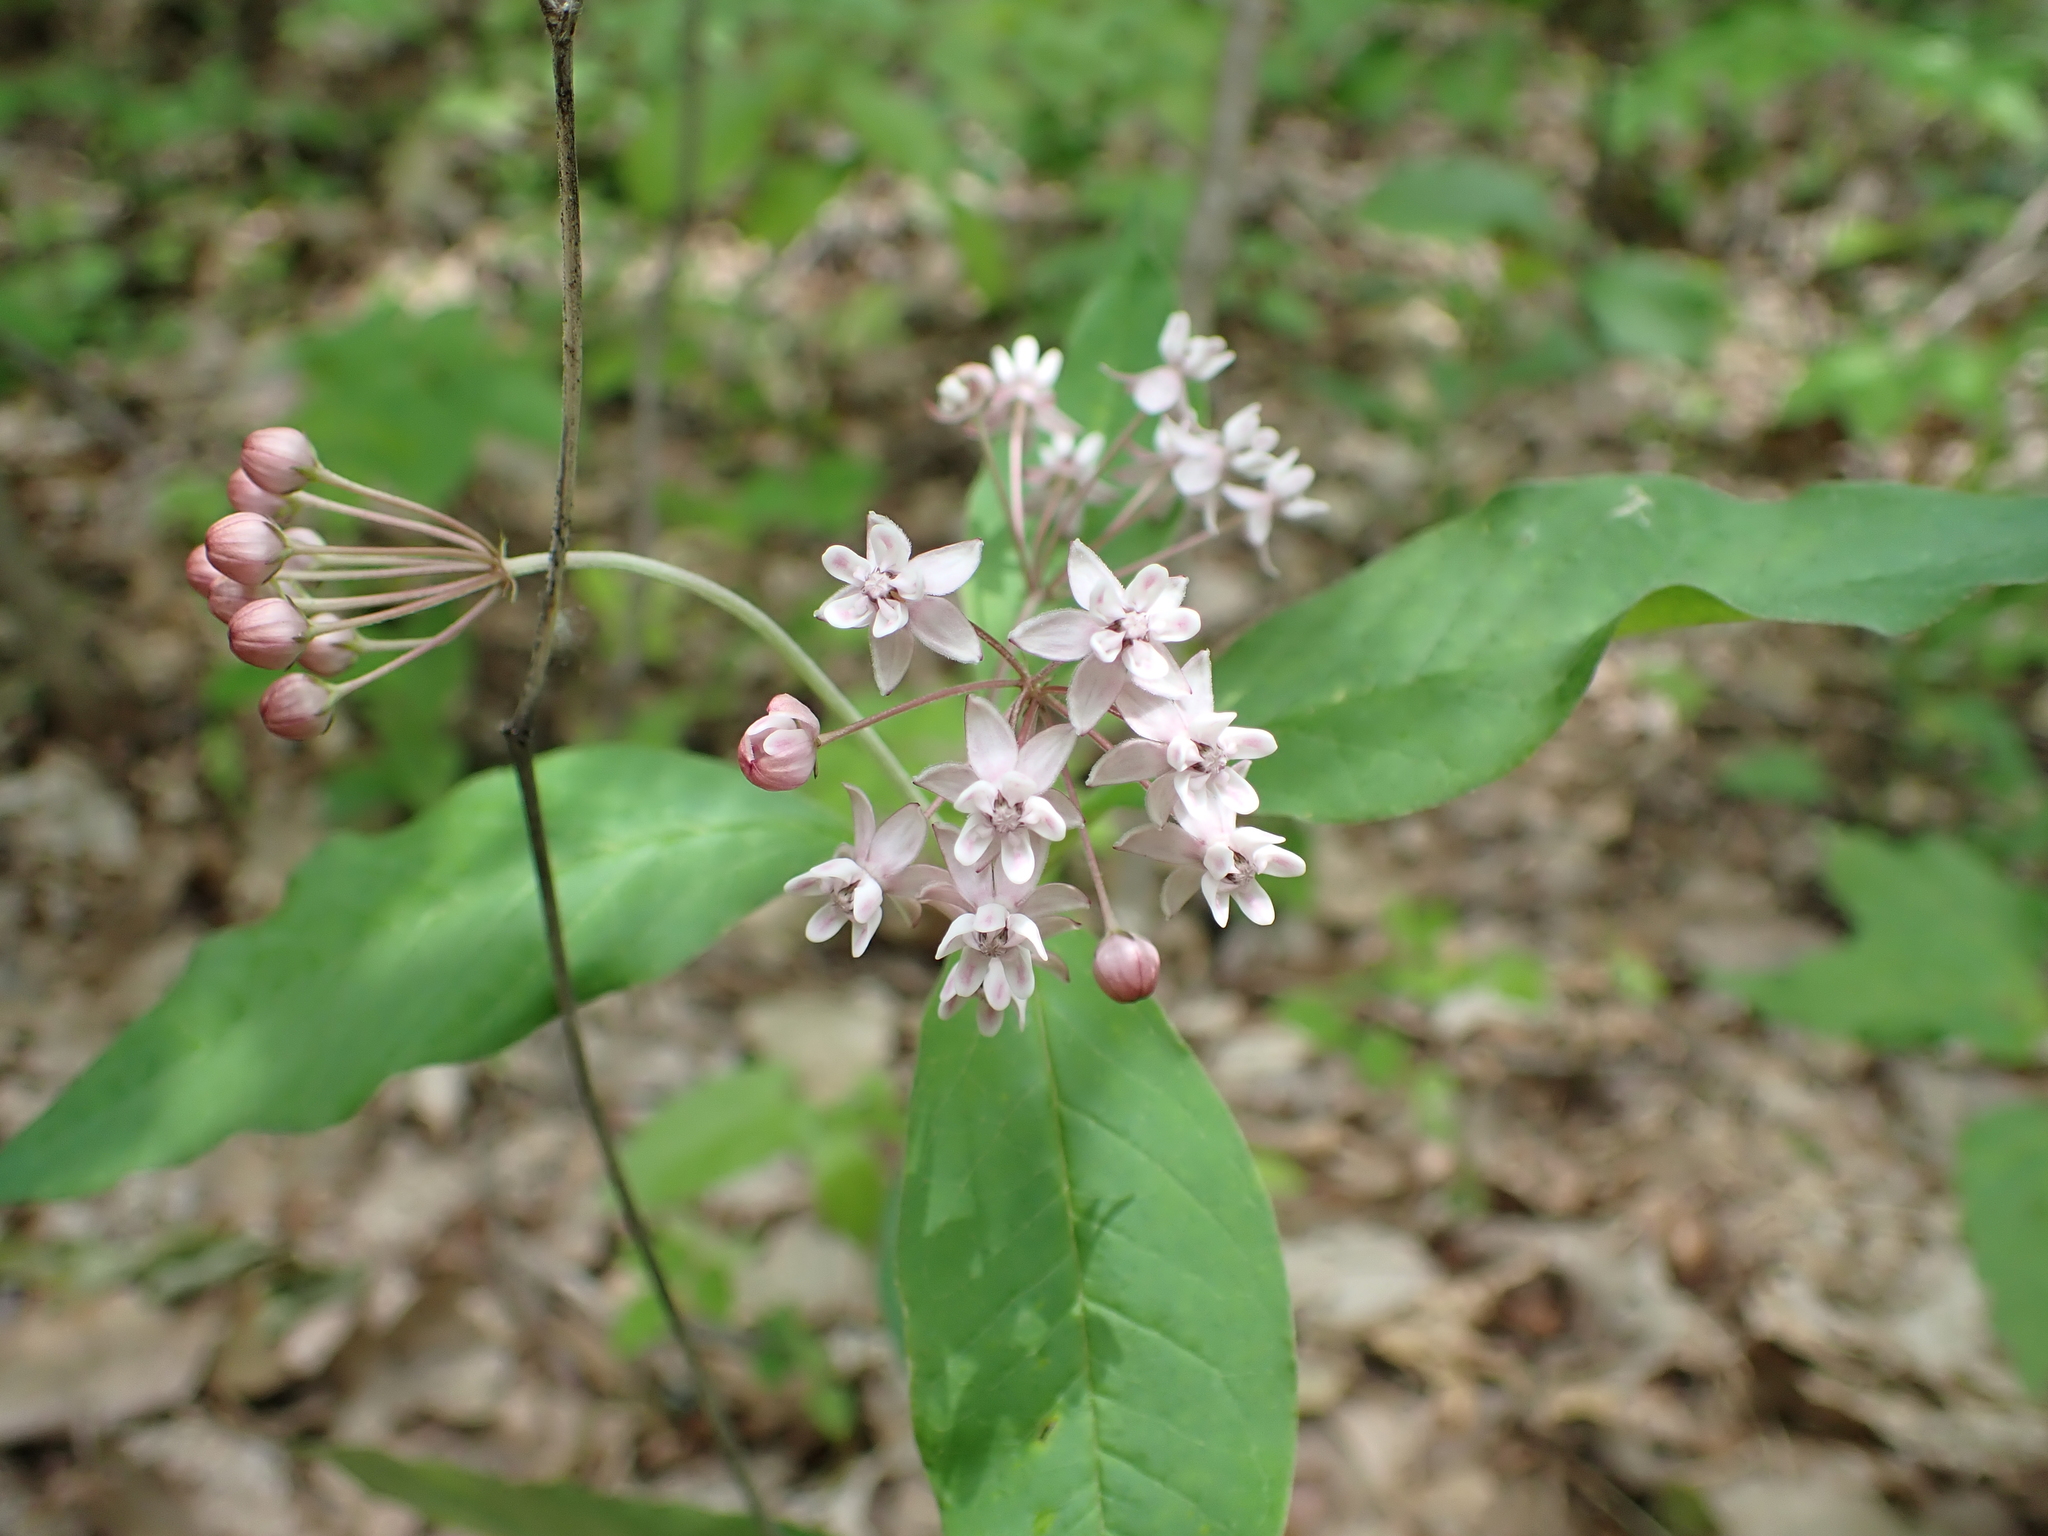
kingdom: Plantae
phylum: Tracheophyta
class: Magnoliopsida
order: Gentianales
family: Apocynaceae
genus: Asclepias
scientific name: Asclepias quadrifolia
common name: Whorled milkweed
